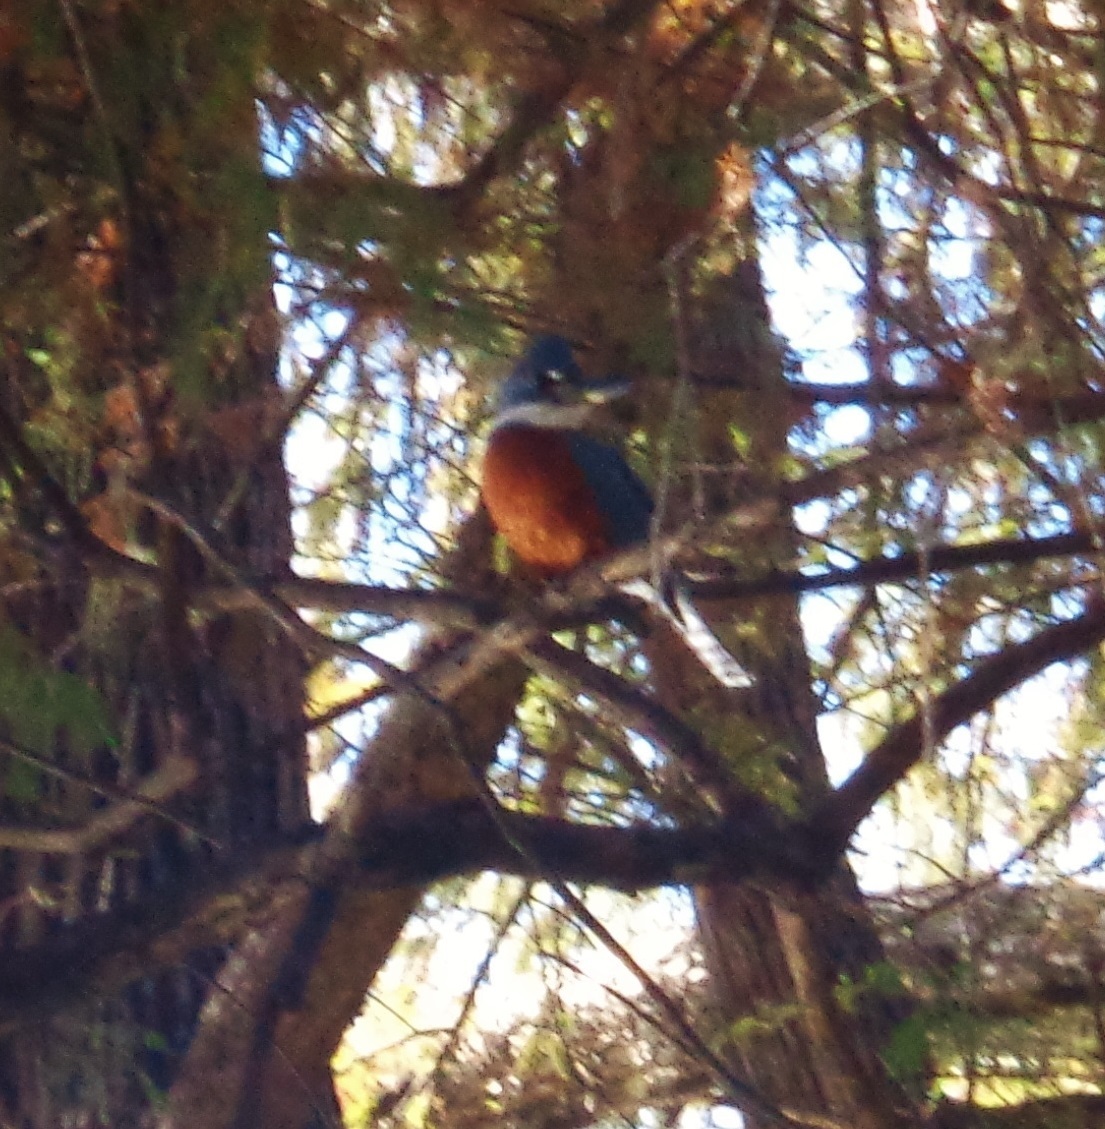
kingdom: Animalia
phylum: Chordata
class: Aves
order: Coraciiformes
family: Alcedinidae
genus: Megaceryle
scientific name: Megaceryle torquata
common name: Ringed kingfisher
